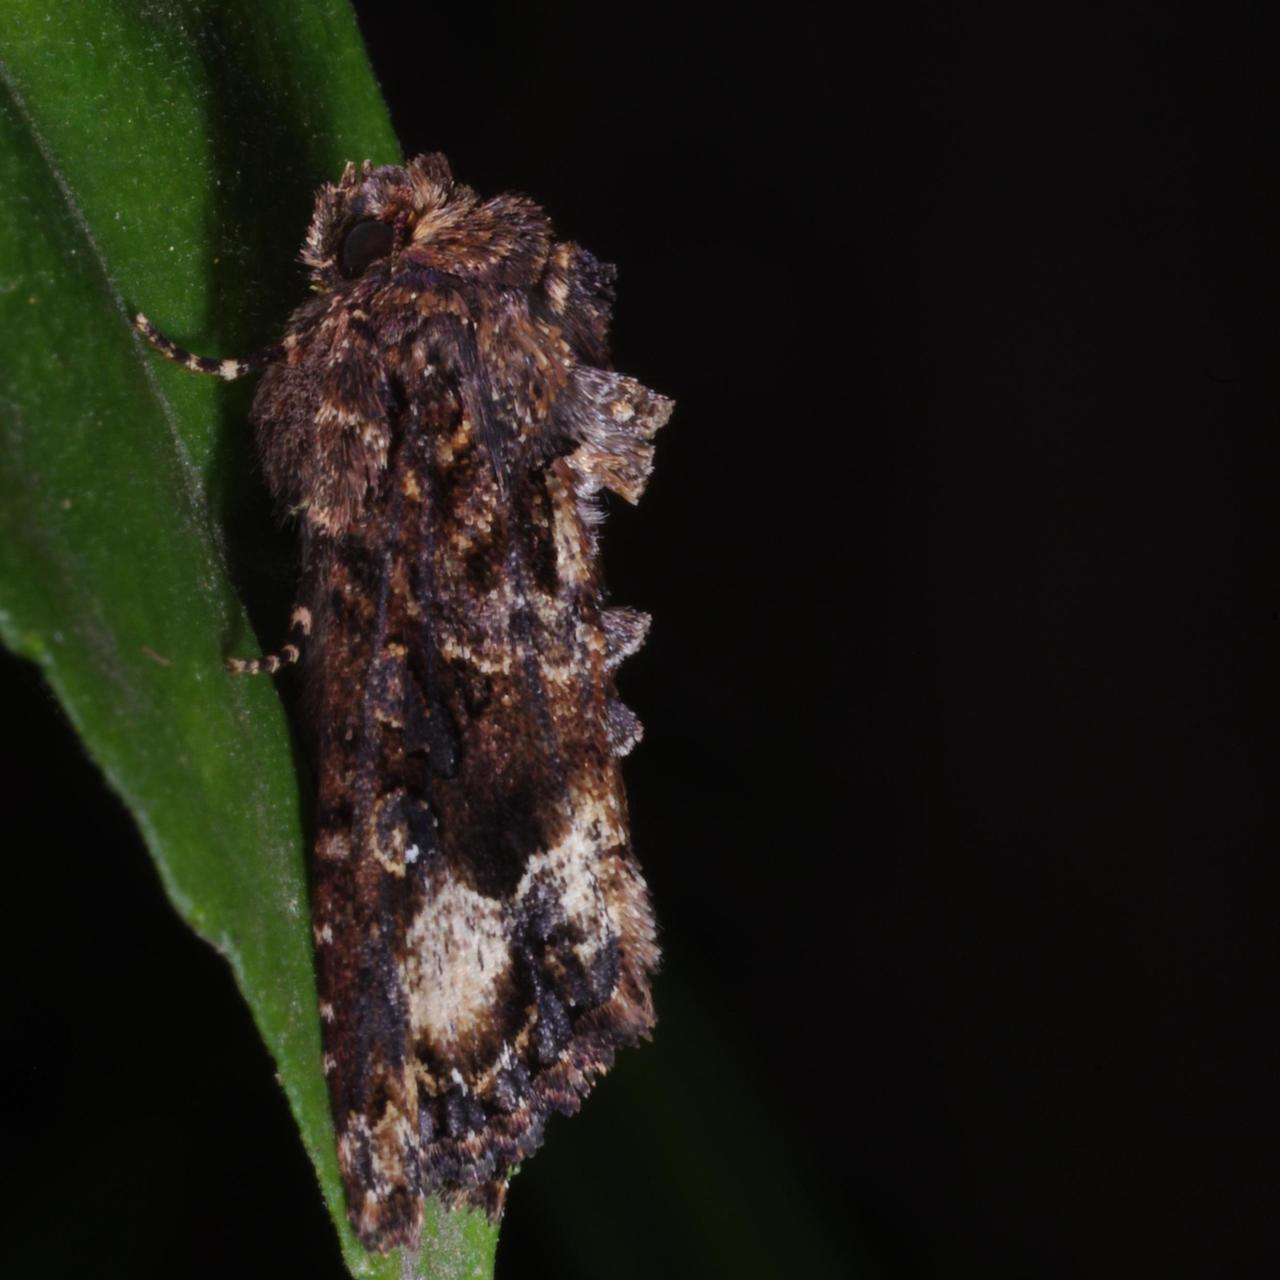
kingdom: Animalia
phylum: Arthropoda
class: Insecta
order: Lepidoptera
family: Noctuidae
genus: Neumichtis
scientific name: Neumichtis saliaris
